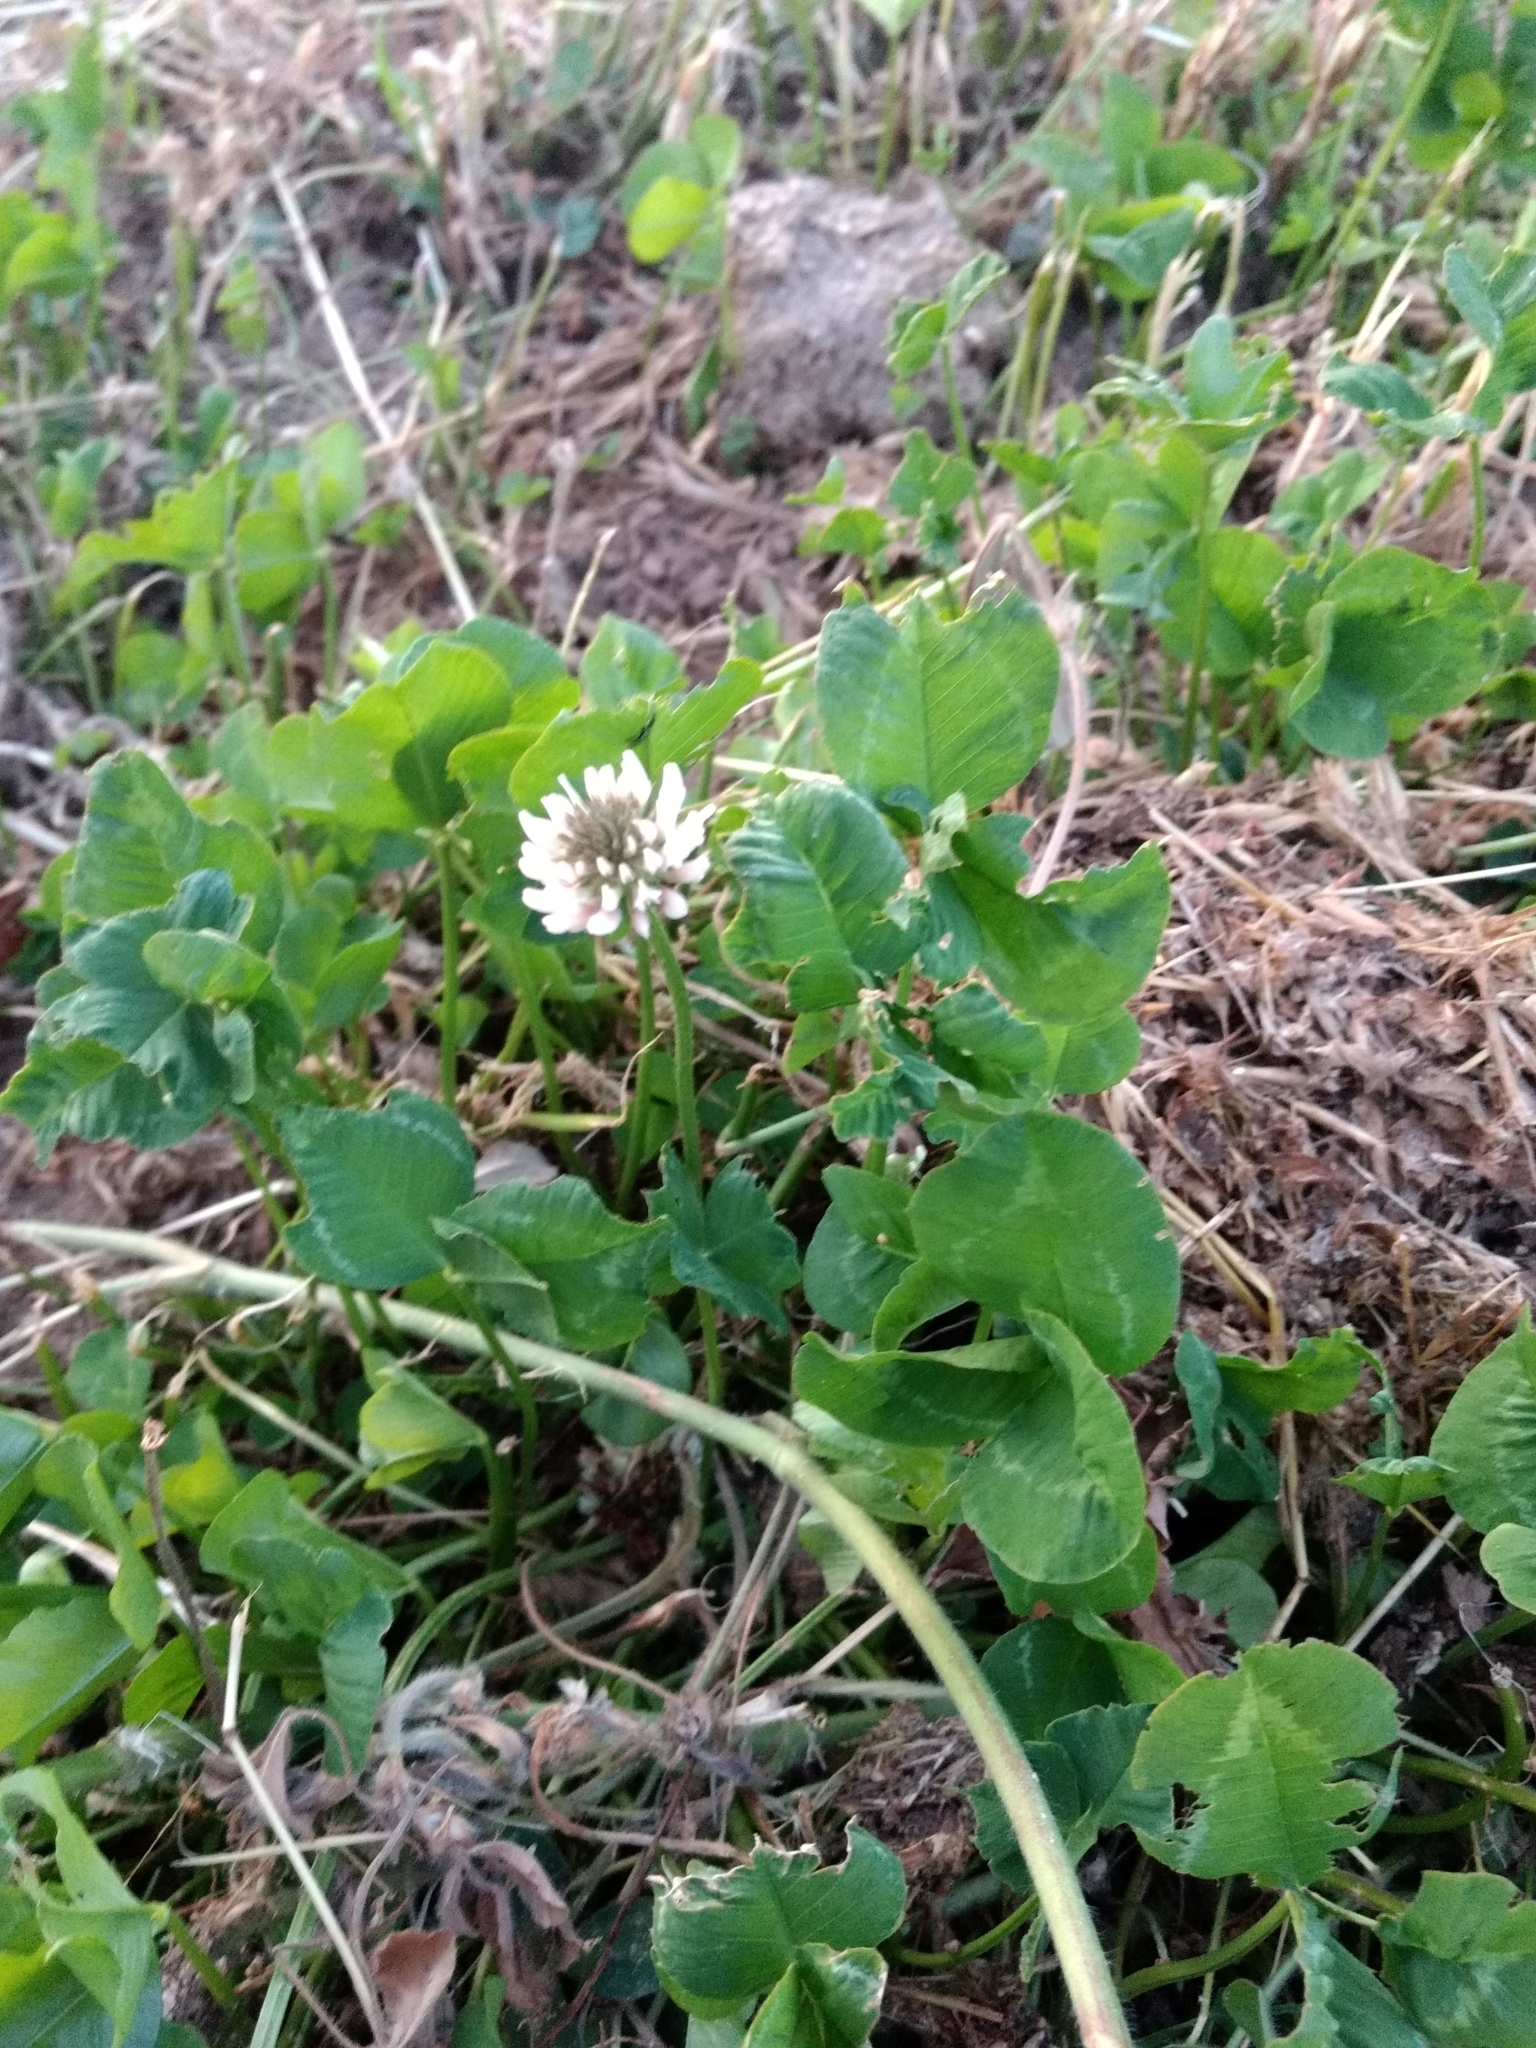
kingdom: Plantae
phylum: Tracheophyta
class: Magnoliopsida
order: Fabales
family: Fabaceae
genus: Trifolium
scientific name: Trifolium repens
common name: White clover
